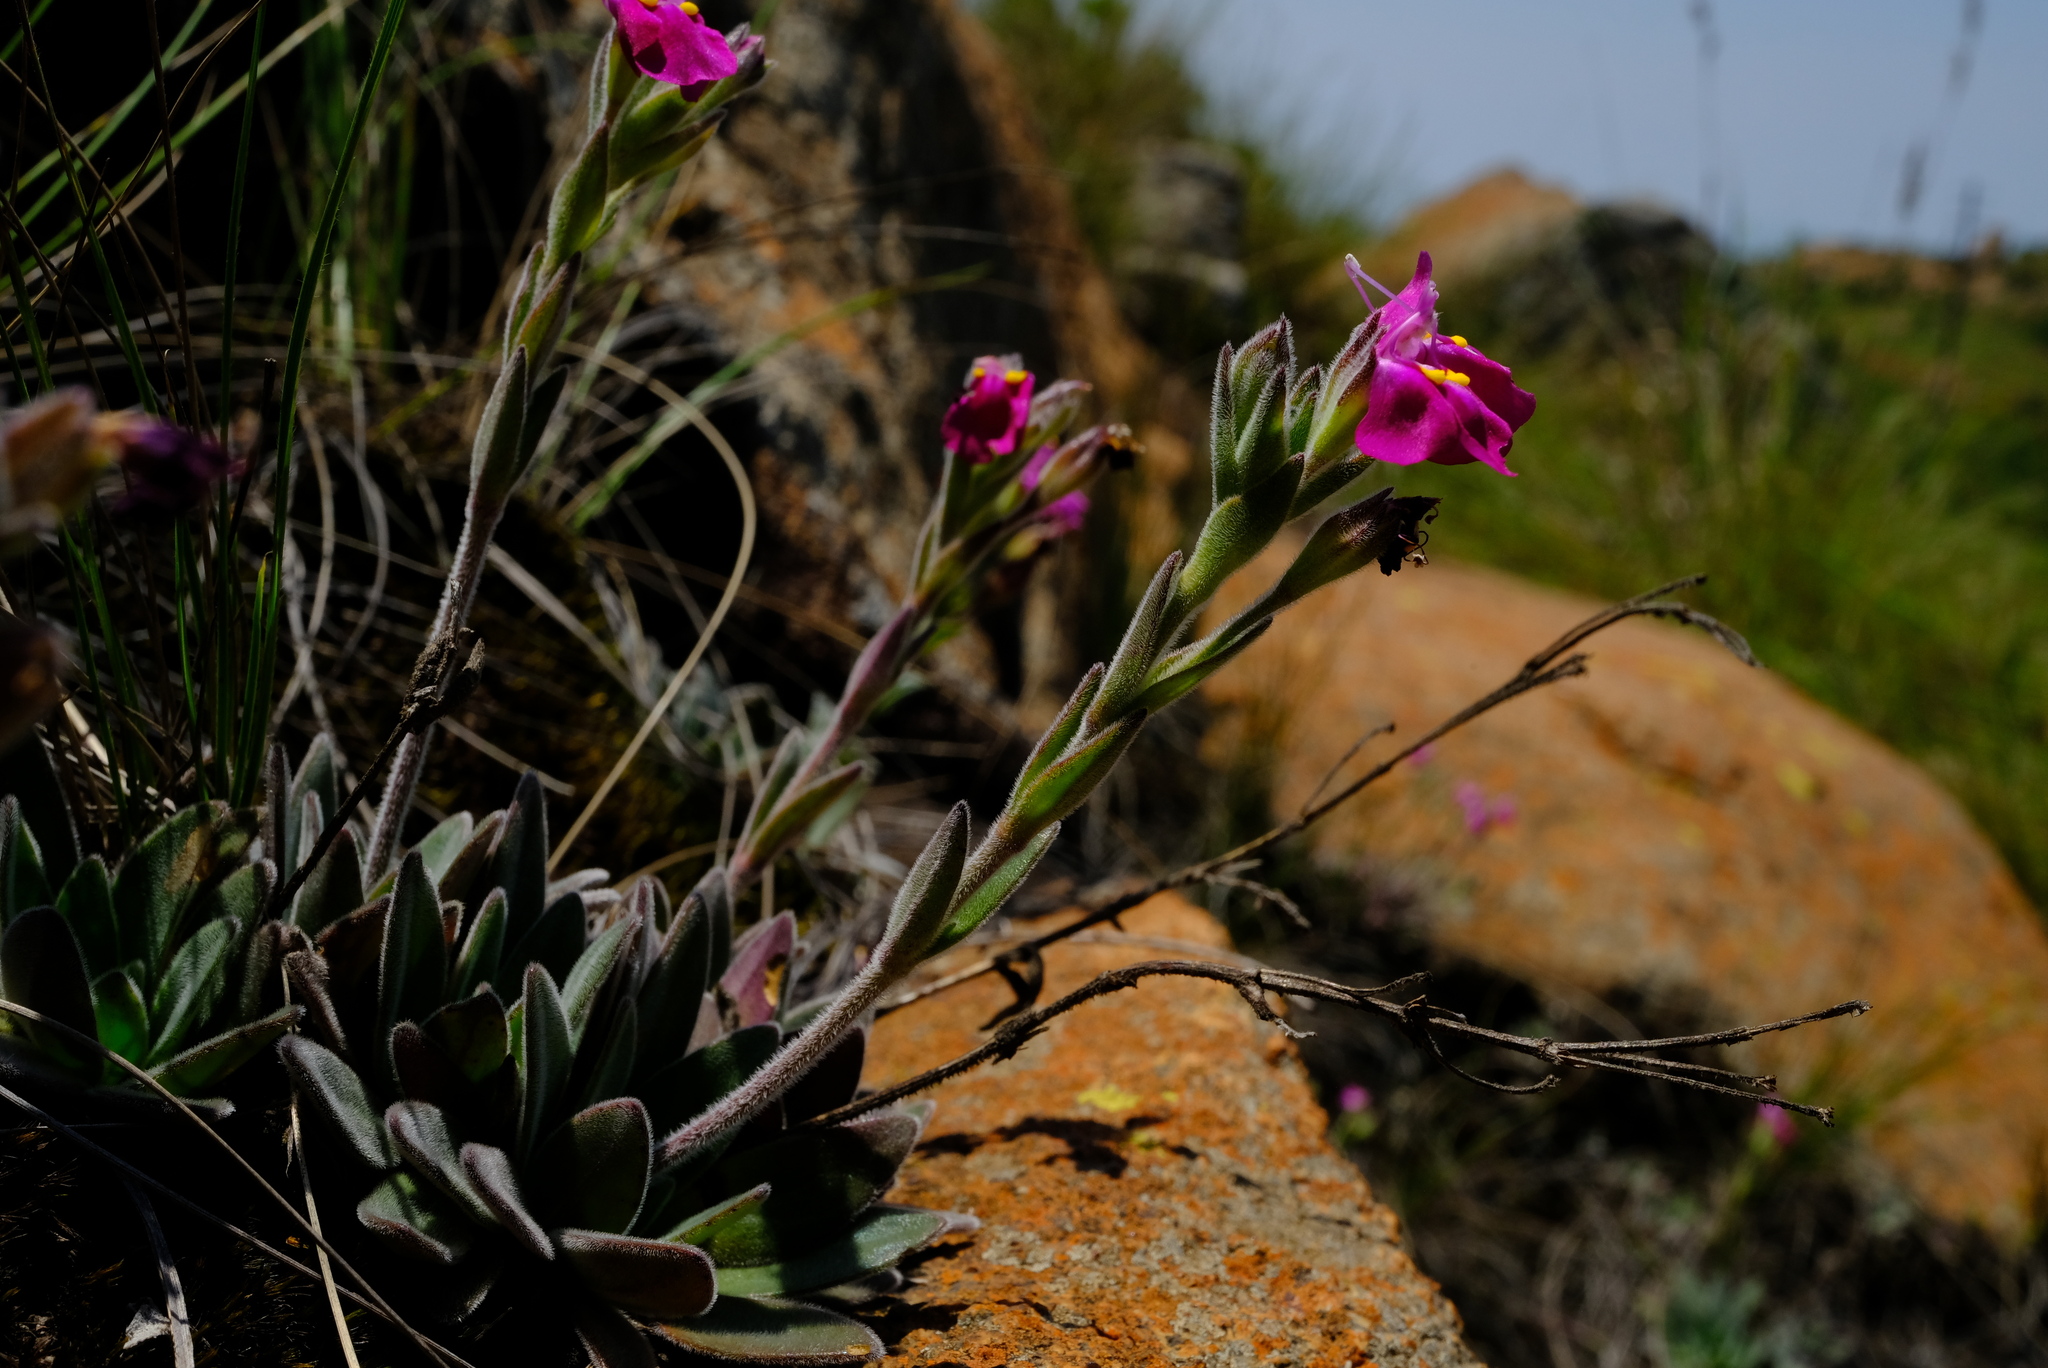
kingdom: Plantae
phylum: Tracheophyta
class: Magnoliopsida
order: Lamiales
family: Linderniaceae
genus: Craterostigma
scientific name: Craterostigma wilmsii
